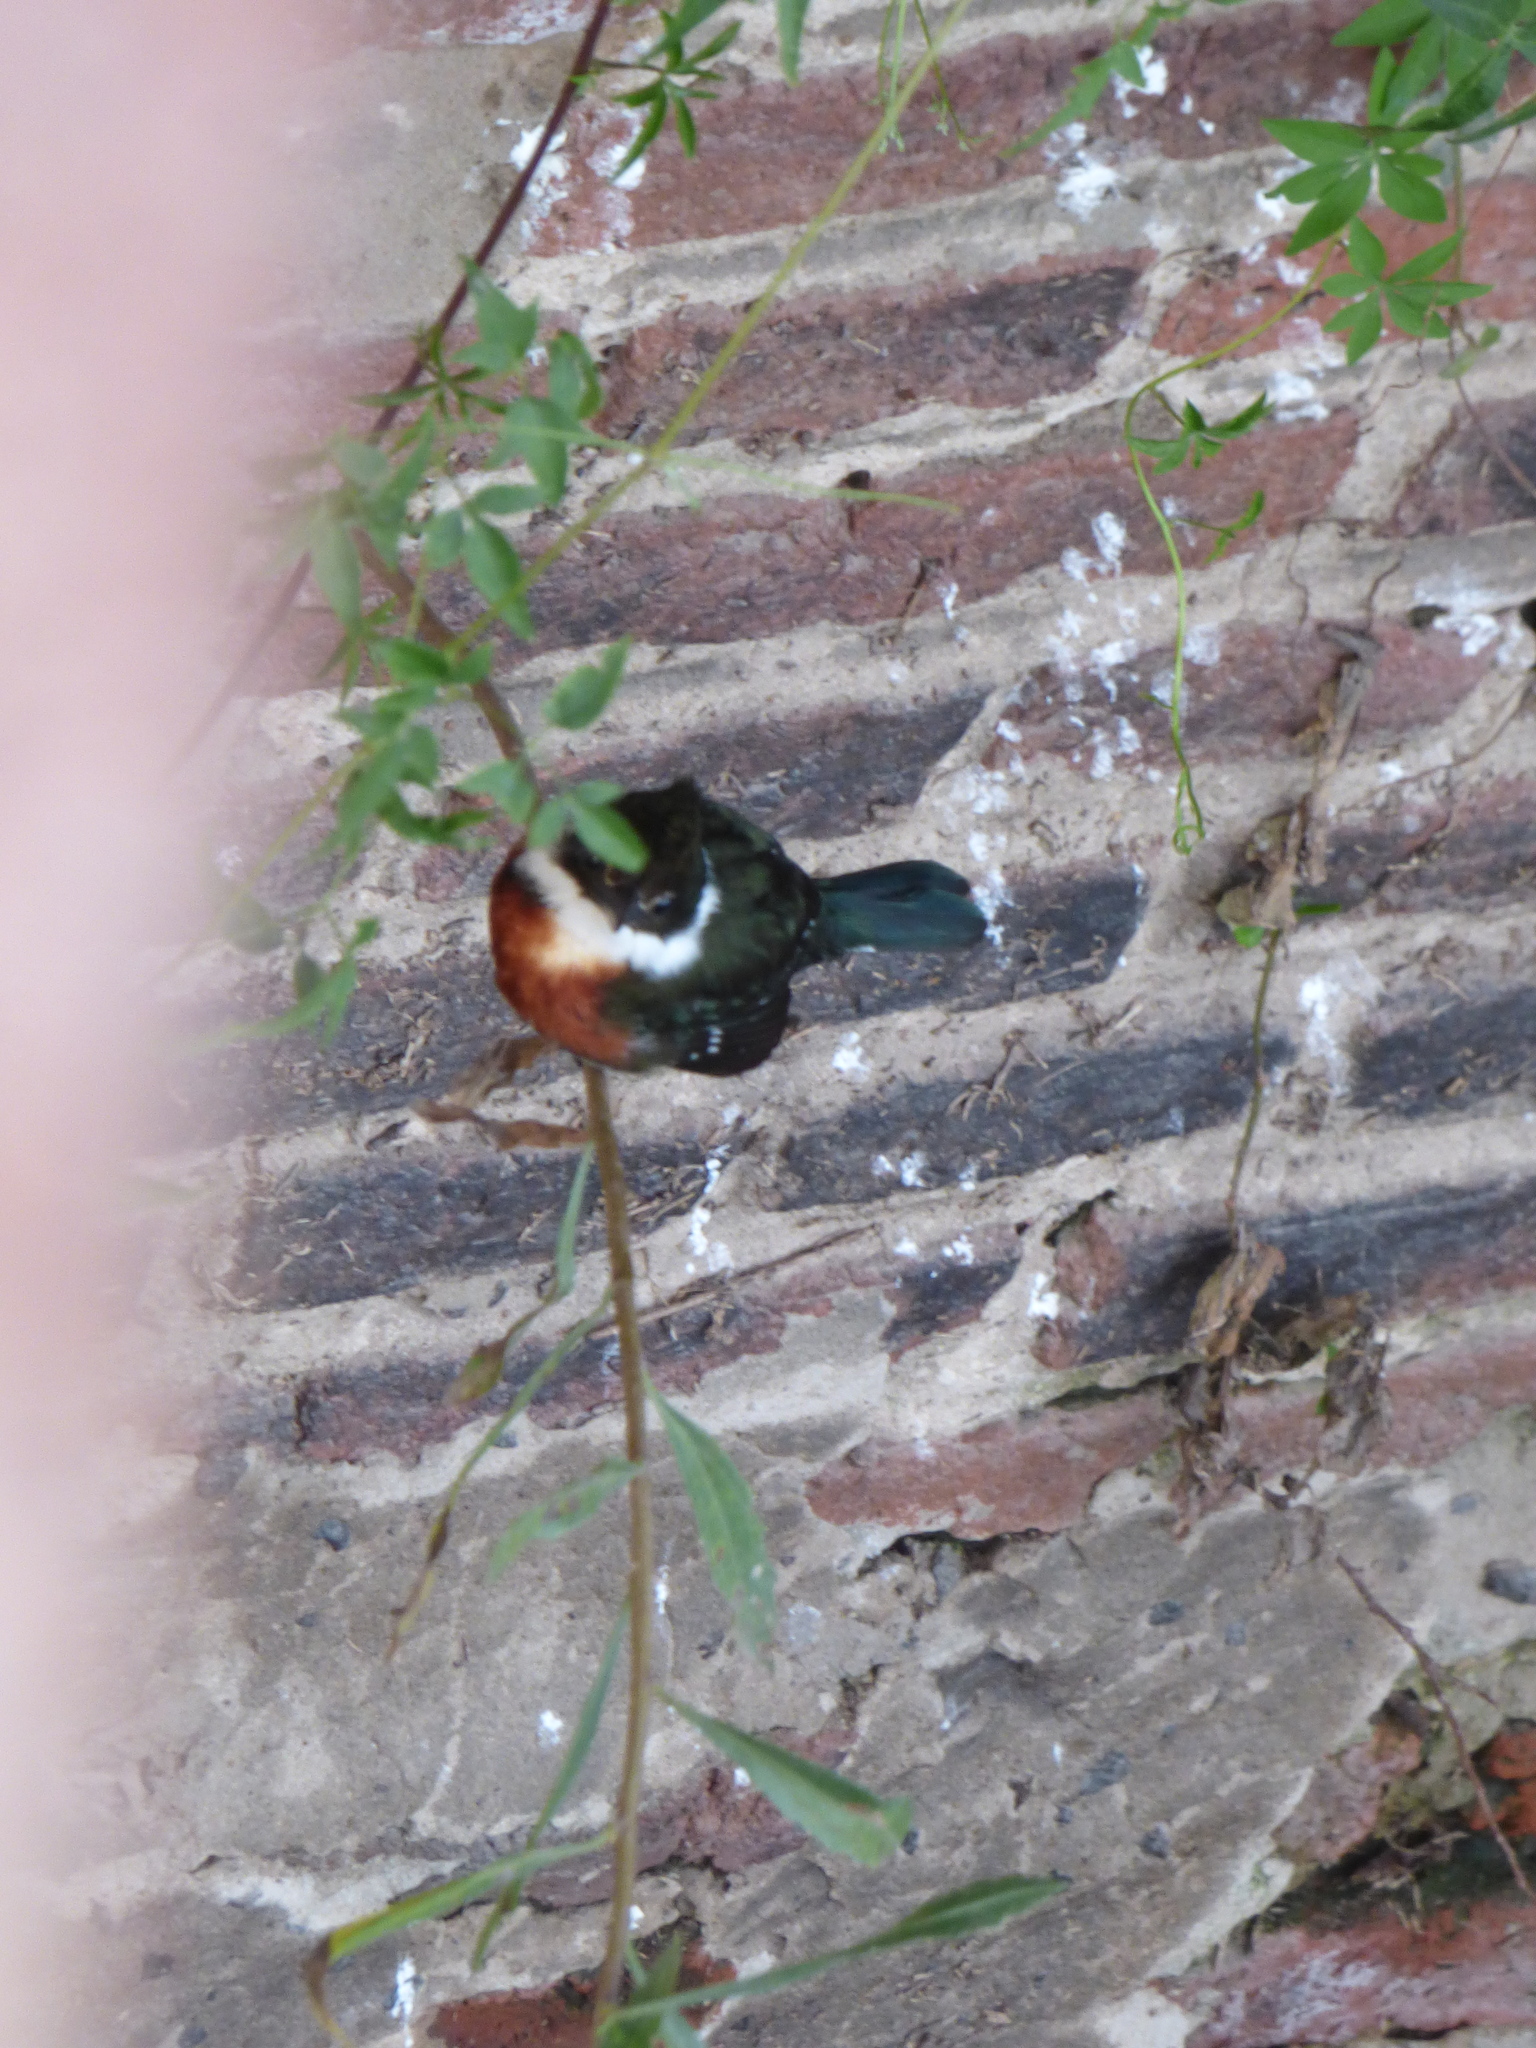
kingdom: Animalia
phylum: Chordata
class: Aves
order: Coraciiformes
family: Alcedinidae
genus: Chloroceryle
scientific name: Chloroceryle americana
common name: Green kingfisher
